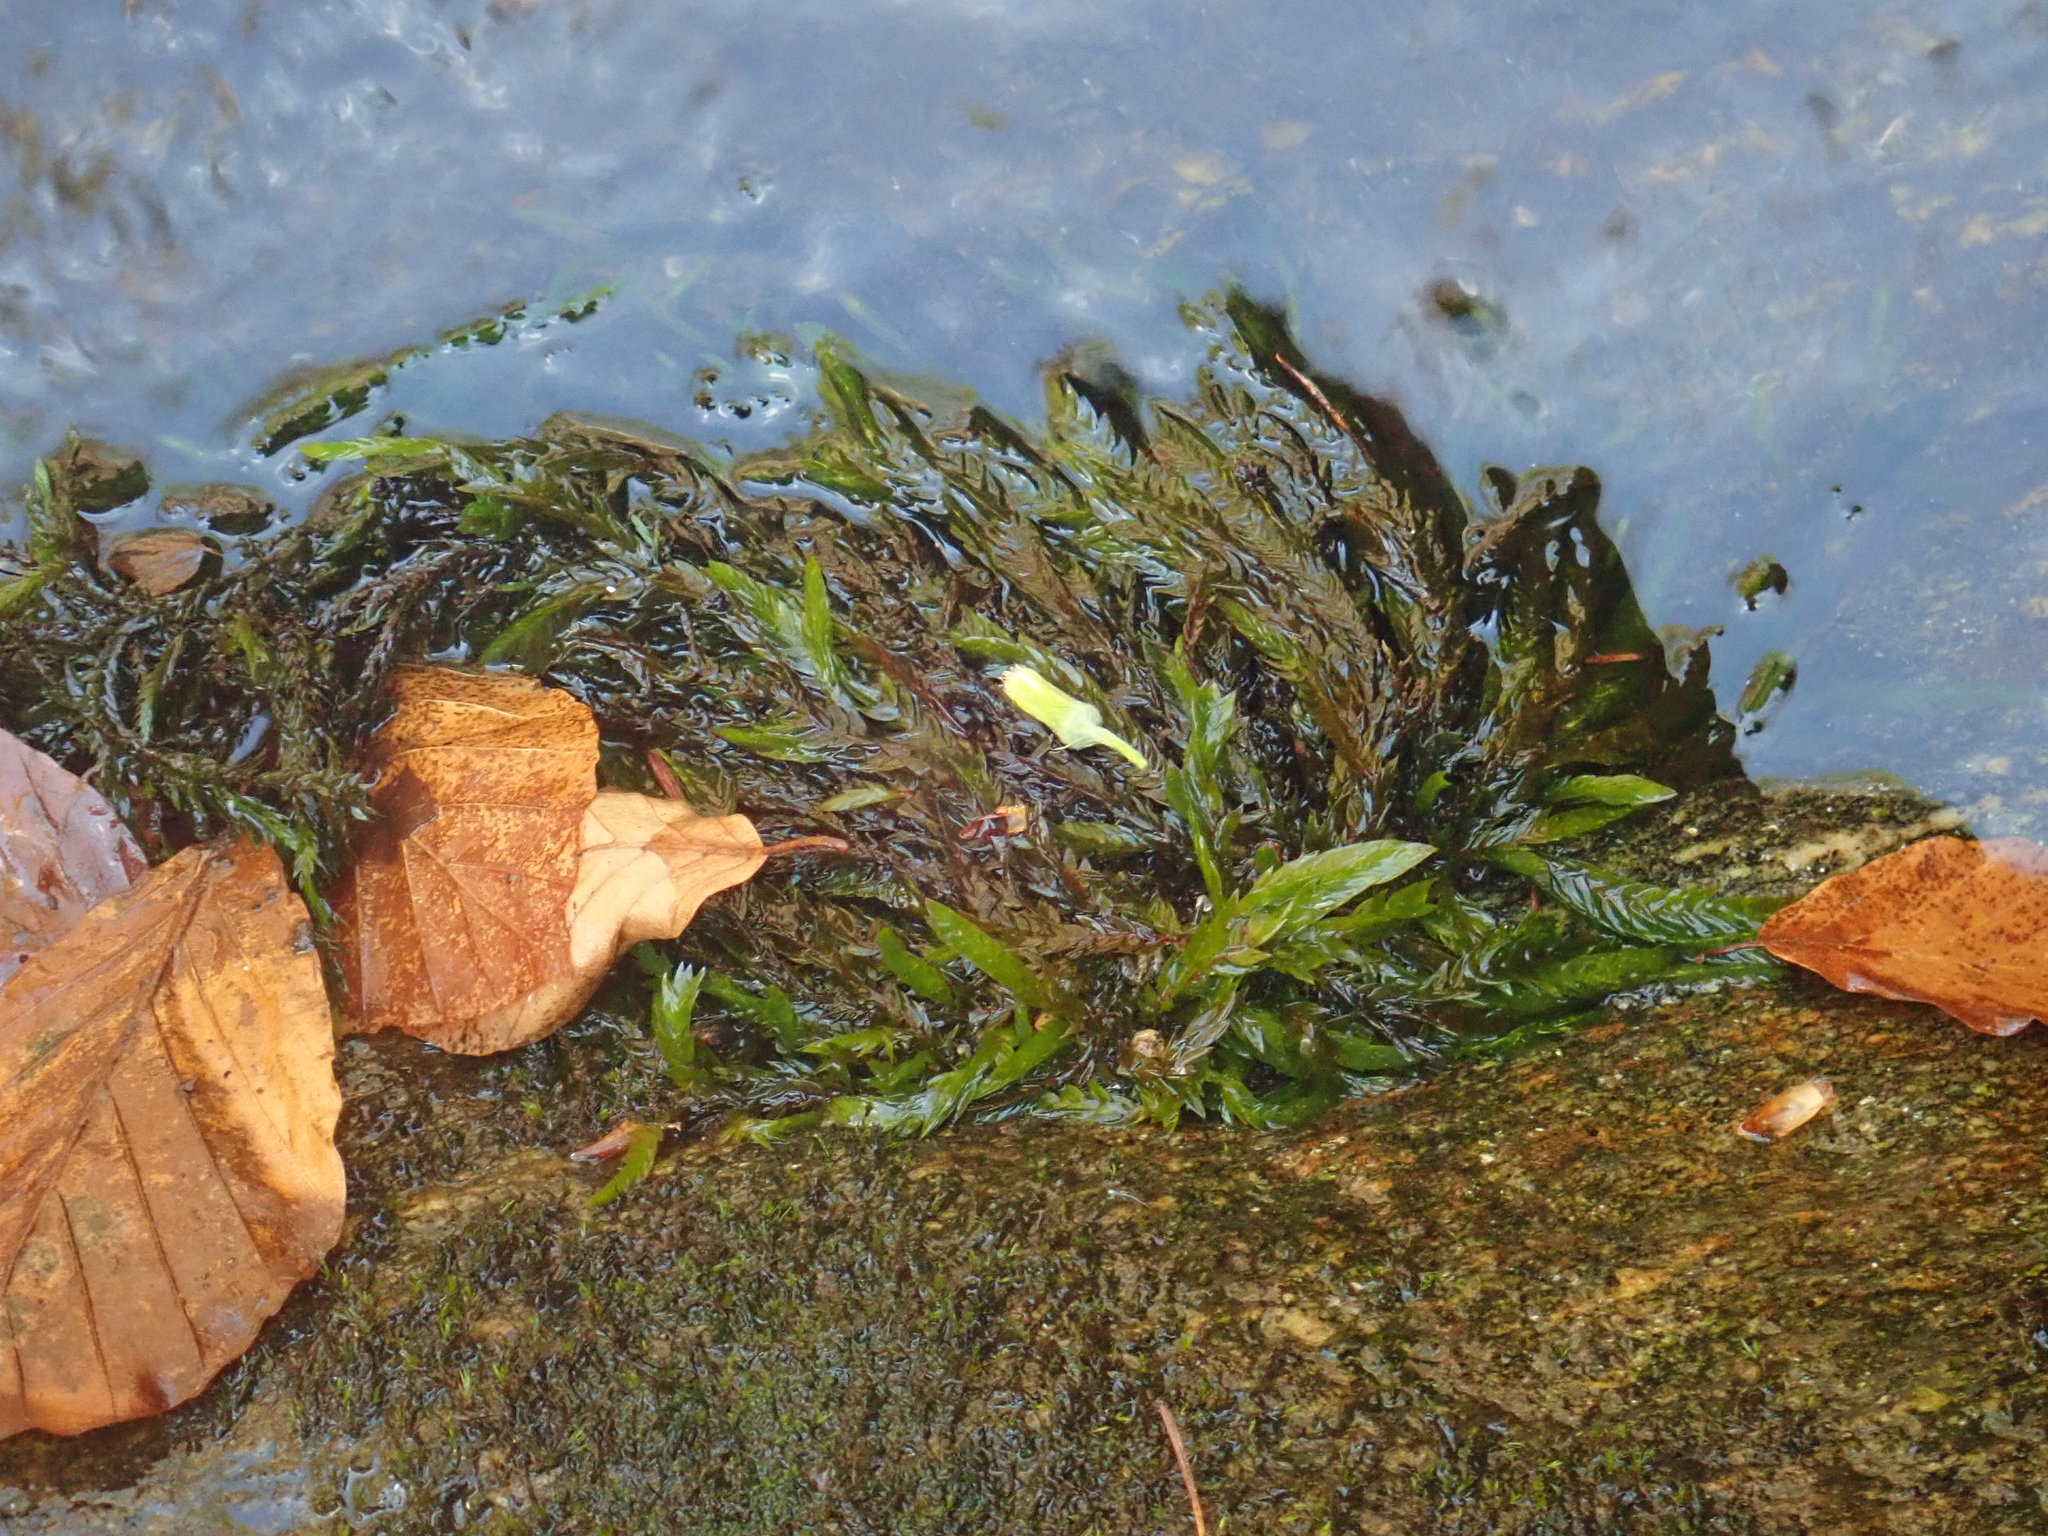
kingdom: Plantae
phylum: Bryophyta
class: Bryopsida
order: Hypnales
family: Fontinalaceae
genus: Fontinalis
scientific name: Fontinalis antipyretica
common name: Greater water-moss
